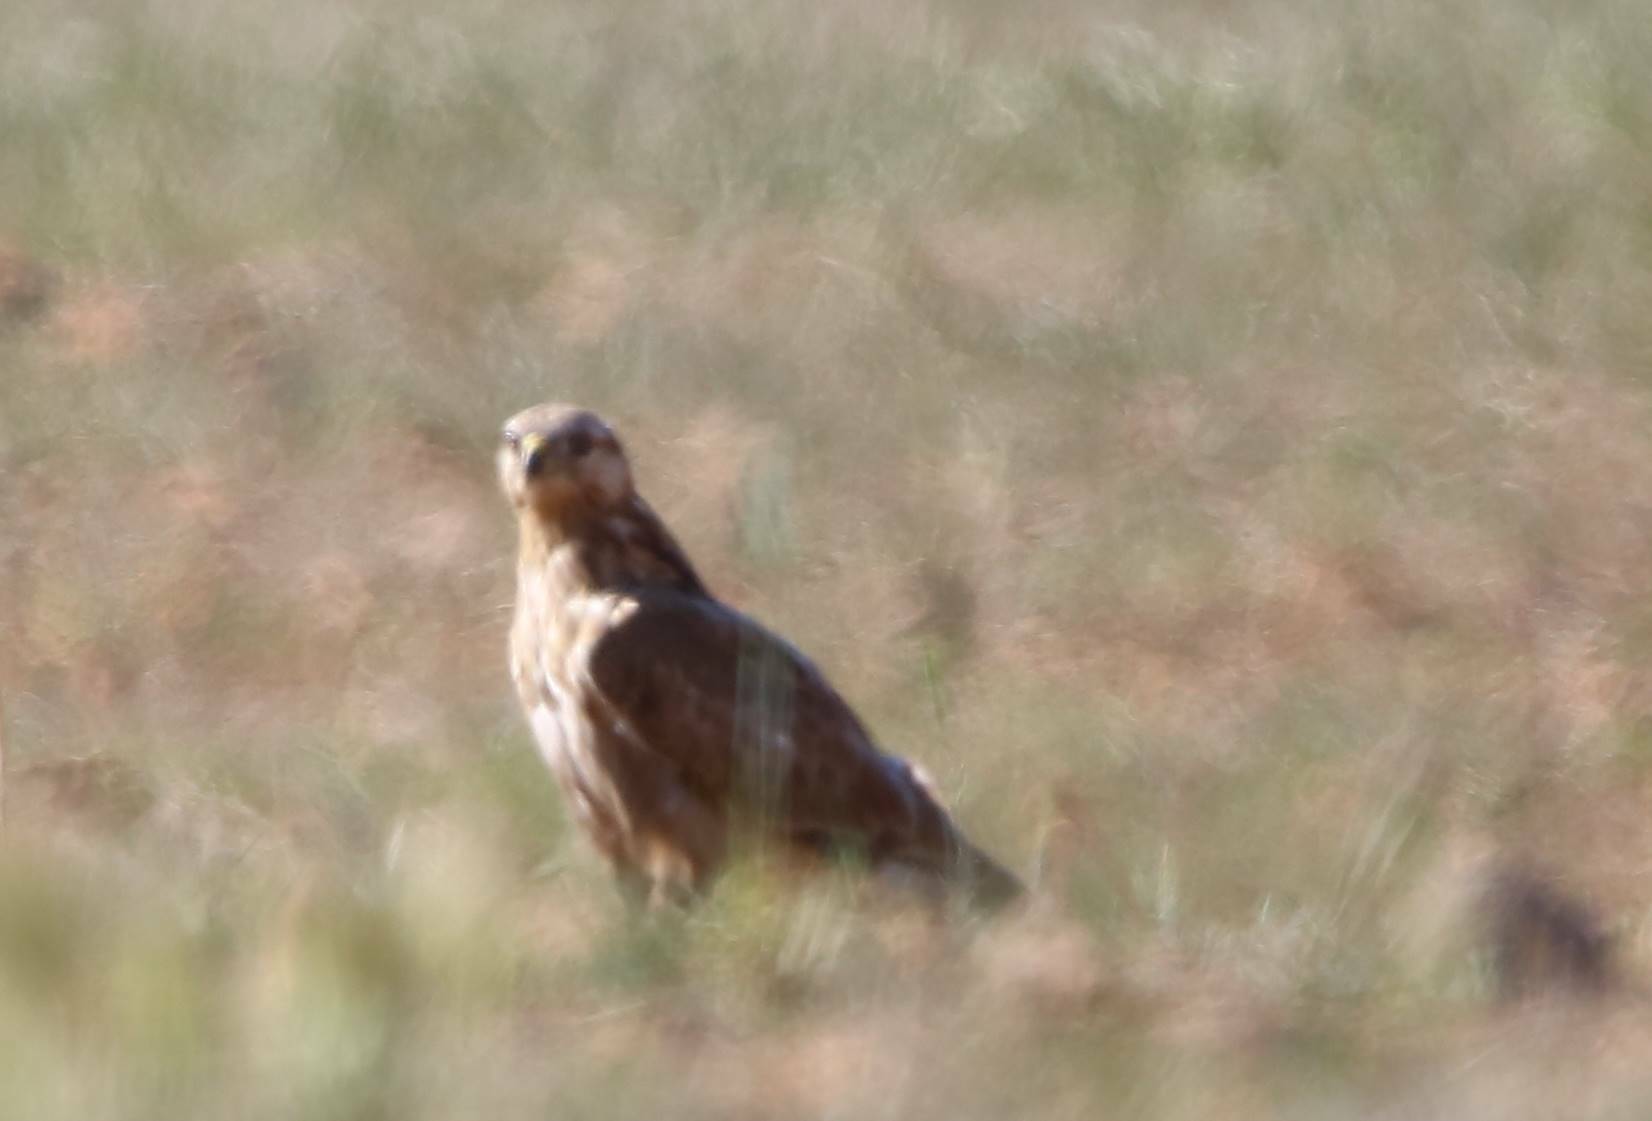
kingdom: Animalia
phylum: Chordata
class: Aves
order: Accipitriformes
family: Accipitridae
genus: Buteo
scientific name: Buteo rufinus
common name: Long-legged buzzard
